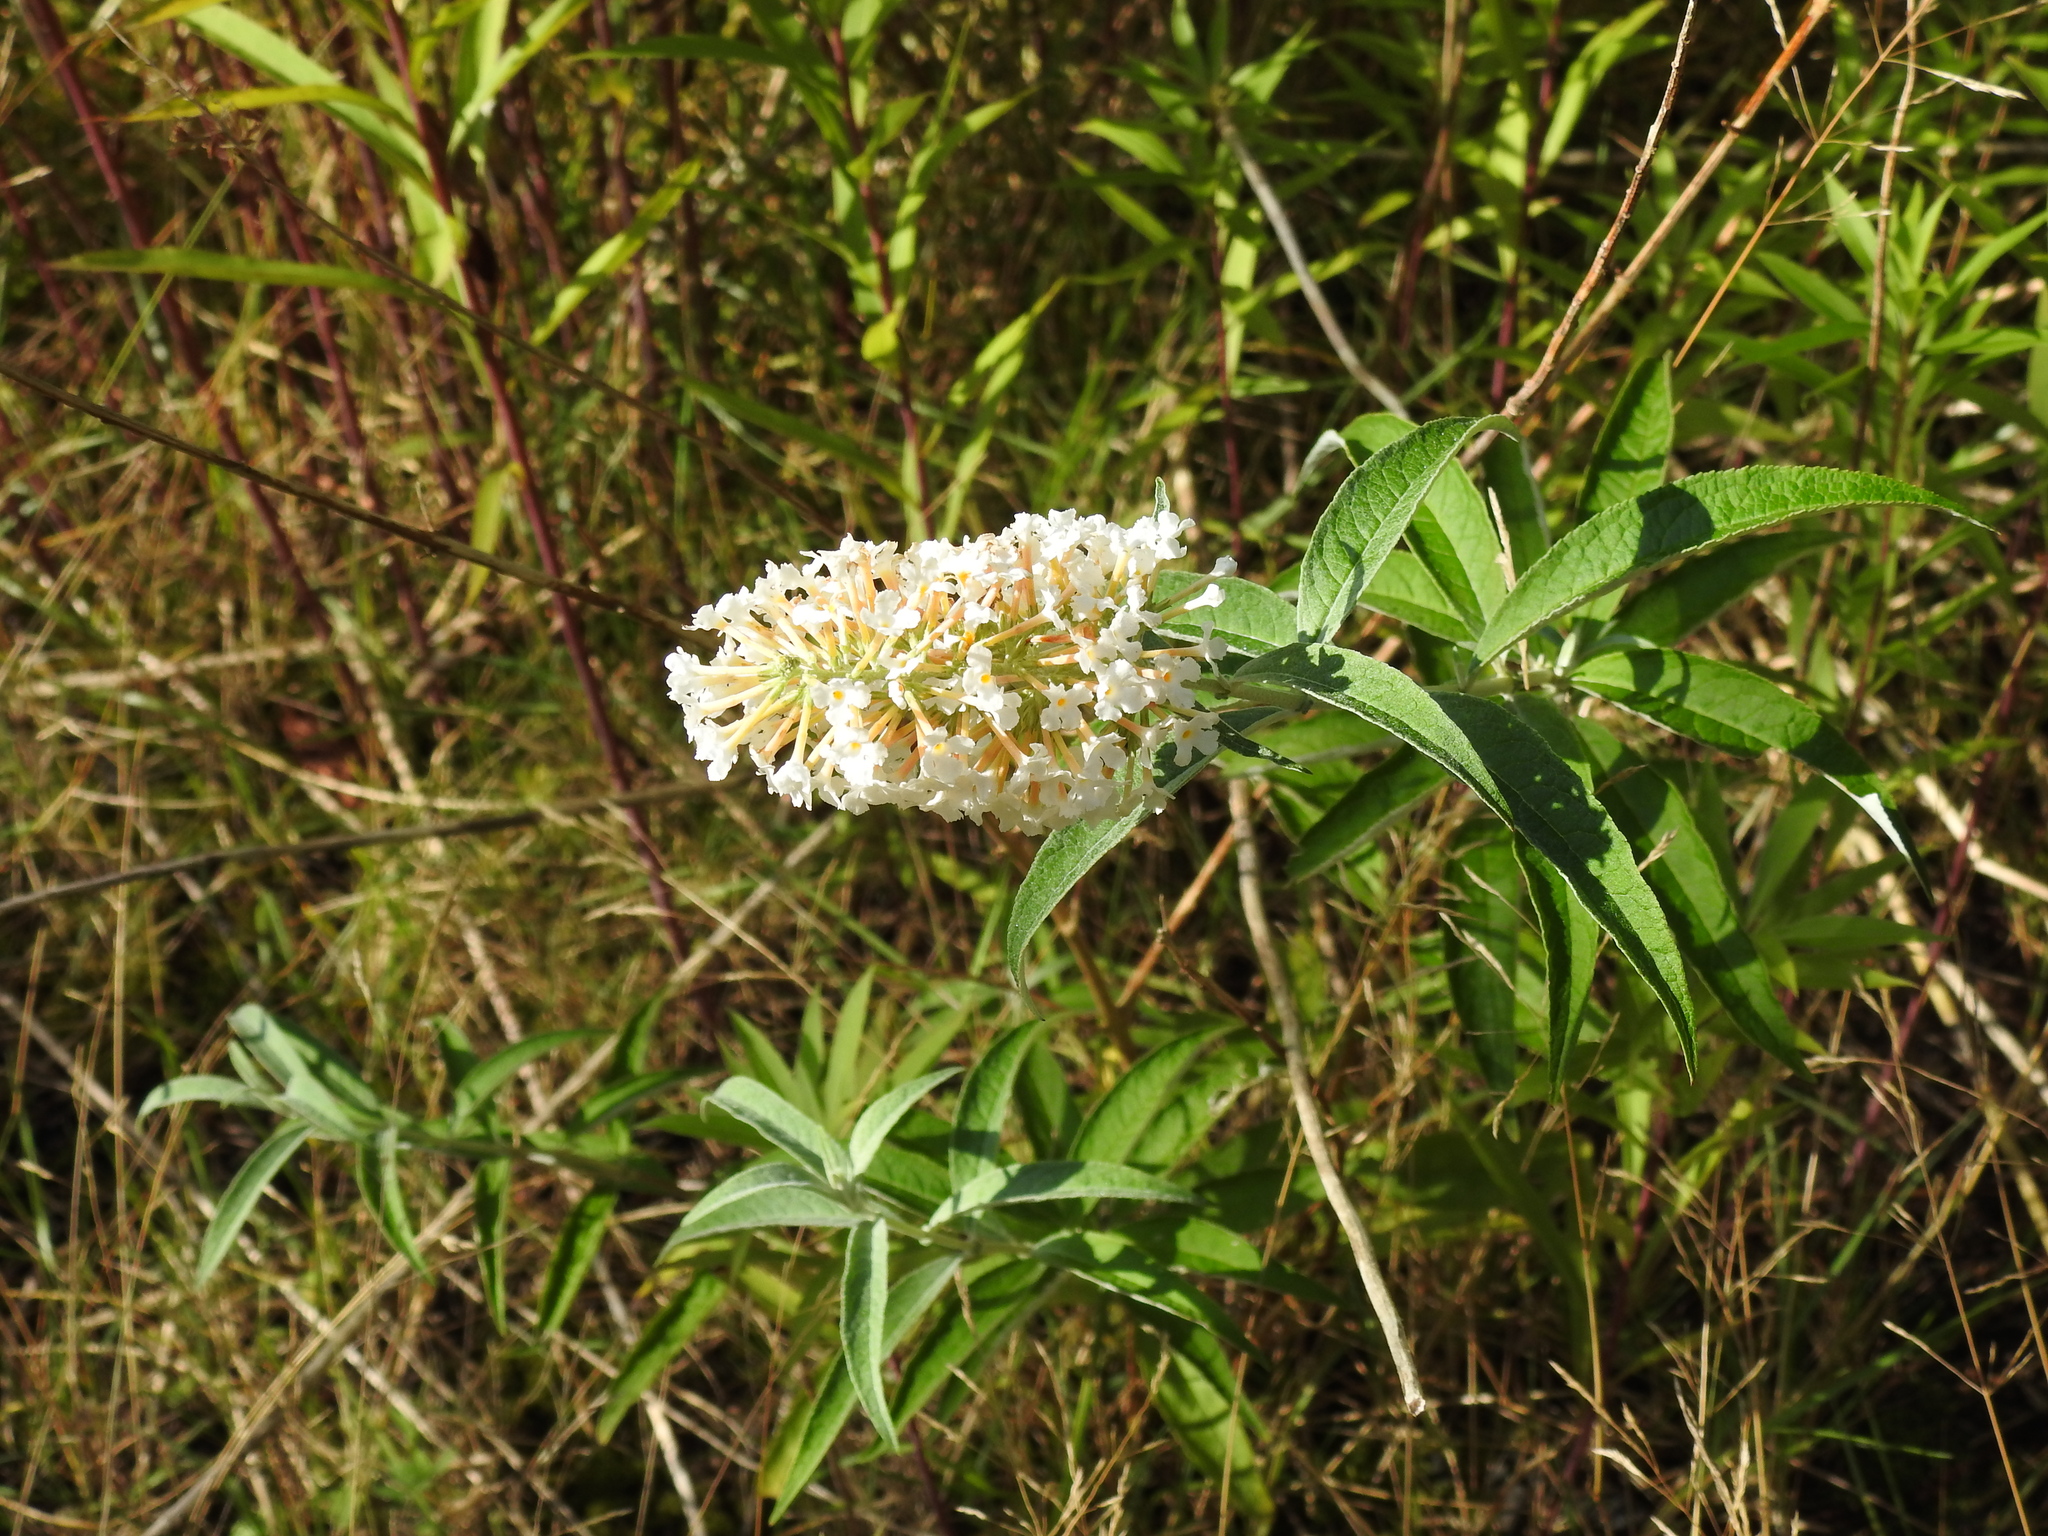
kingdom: Plantae
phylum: Tracheophyta
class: Magnoliopsida
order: Lamiales
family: Scrophulariaceae
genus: Buddleja
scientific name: Buddleja davidii
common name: Butterfly-bush
